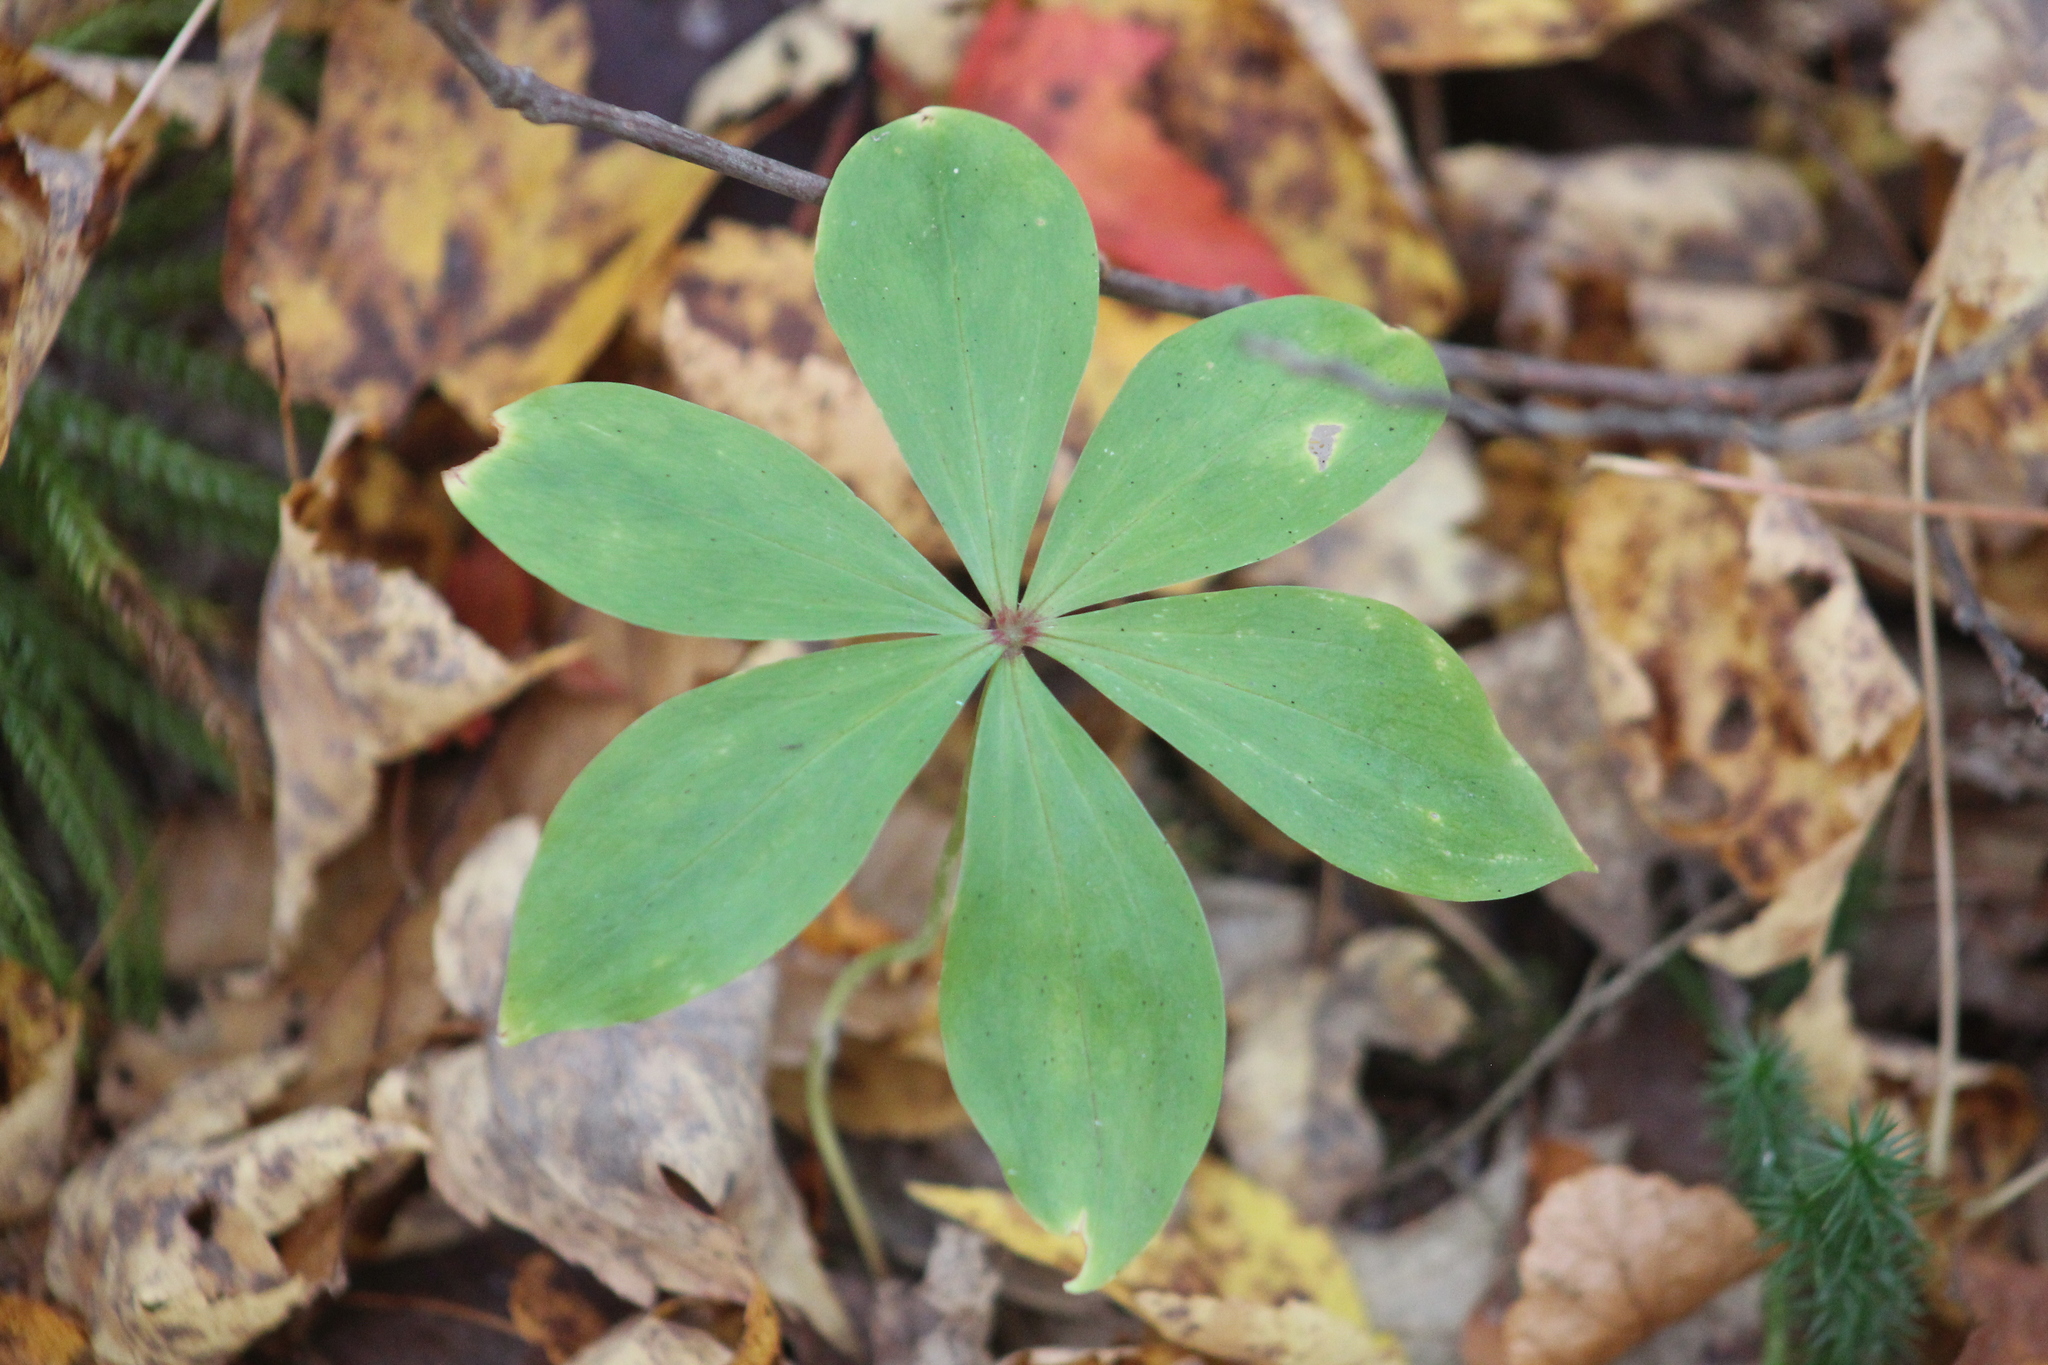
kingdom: Plantae
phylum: Tracheophyta
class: Liliopsida
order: Liliales
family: Liliaceae
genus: Medeola
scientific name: Medeola virginiana
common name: Indian cucumber-root
